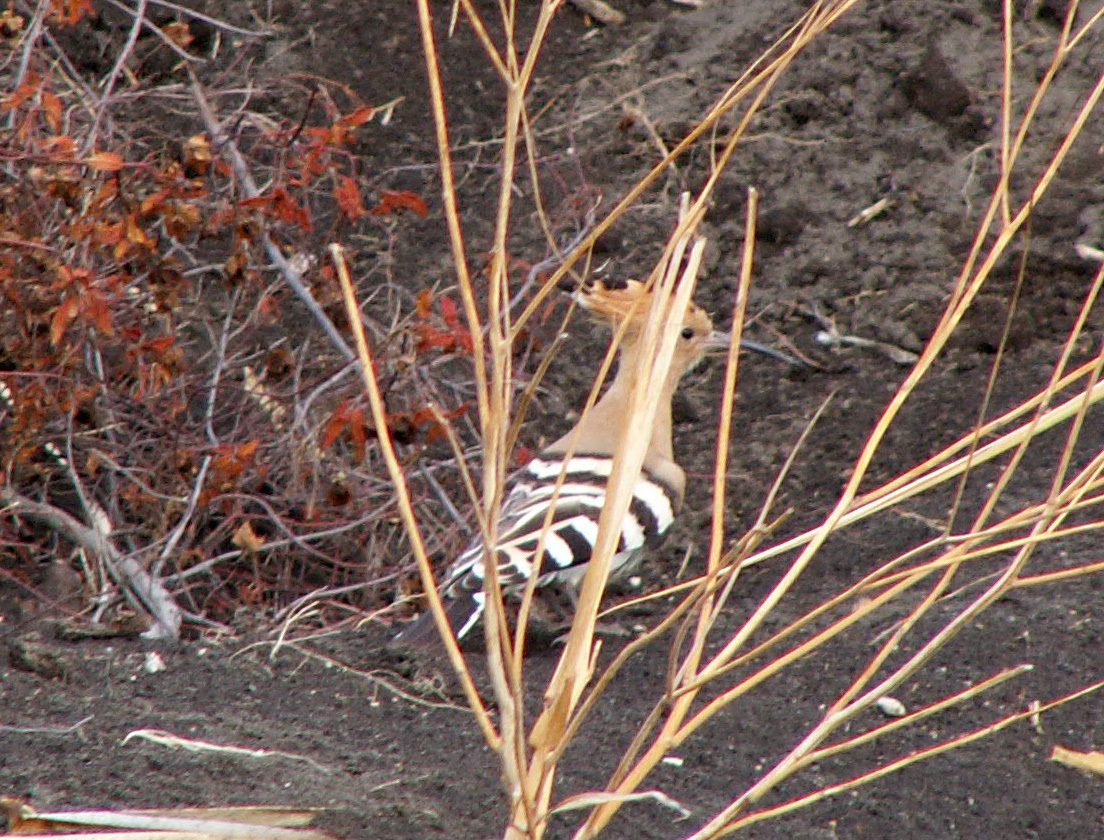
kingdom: Animalia
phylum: Chordata
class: Aves
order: Bucerotiformes
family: Upupidae
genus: Upupa
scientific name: Upupa epops
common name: Eurasian hoopoe
